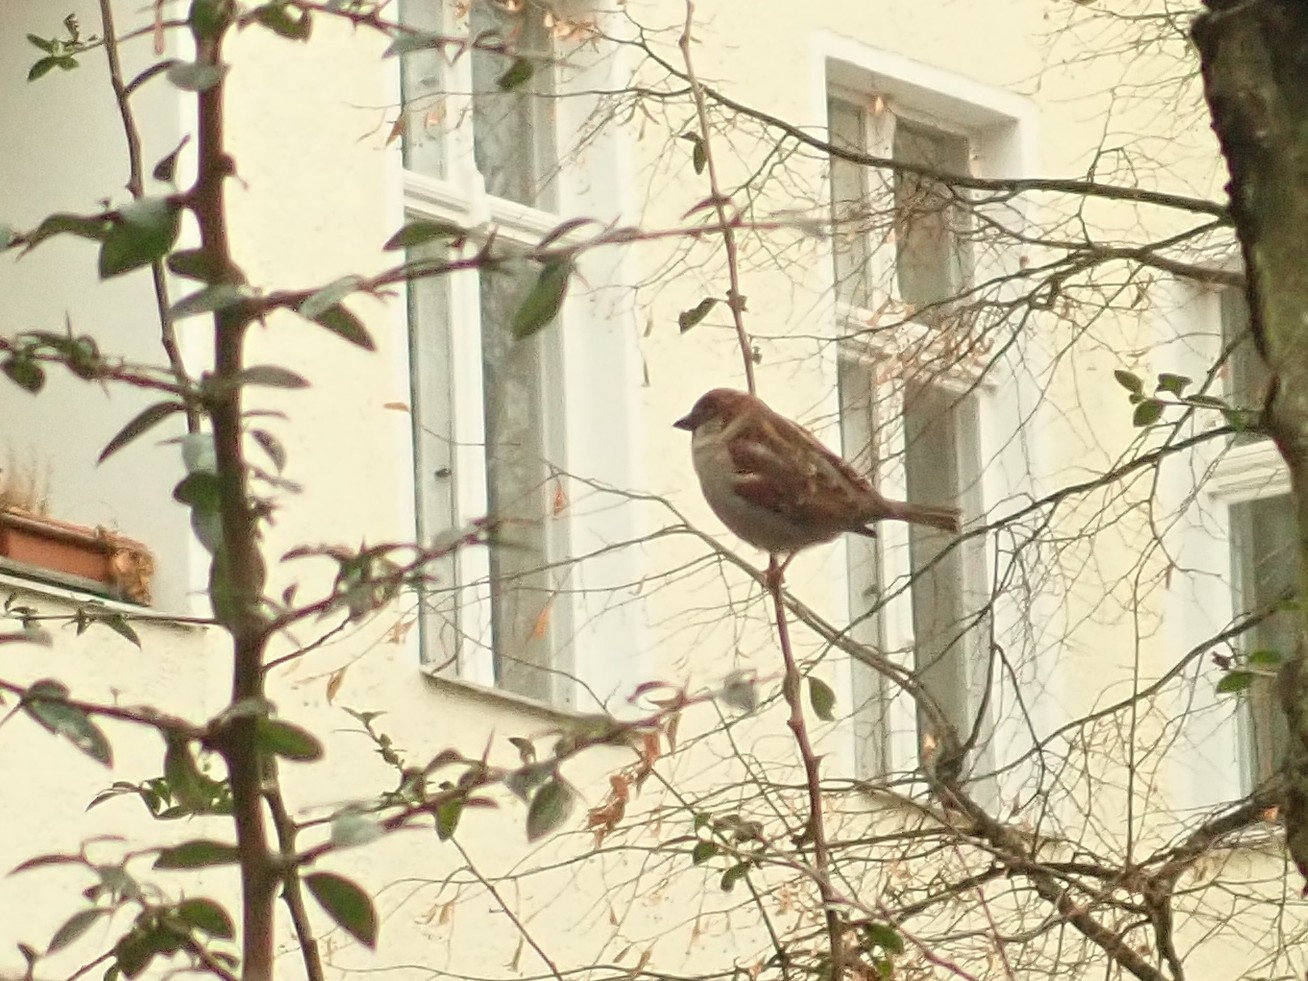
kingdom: Animalia
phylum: Chordata
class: Aves
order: Passeriformes
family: Passeridae
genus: Passer
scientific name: Passer domesticus
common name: House sparrow
